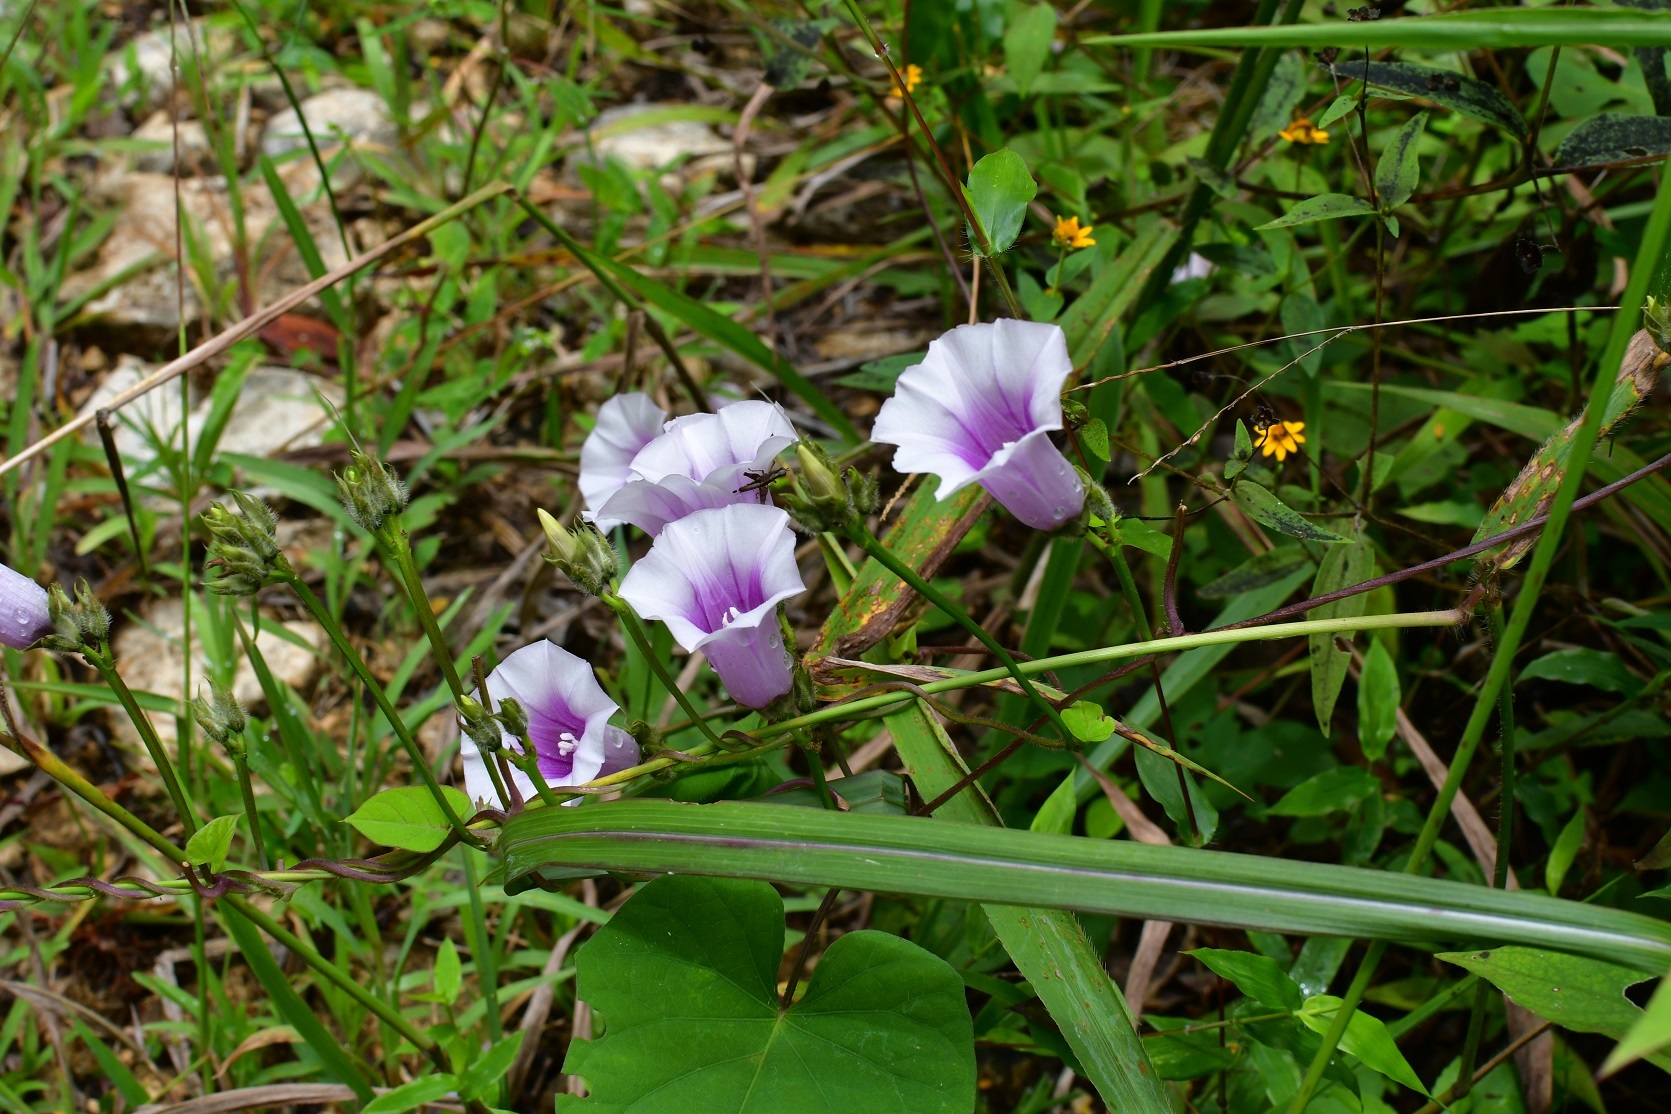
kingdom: Plantae
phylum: Tracheophyta
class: Magnoliopsida
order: Solanales
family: Convolvulaceae
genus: Ipomoea
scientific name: Ipomoea batatas
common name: Sweet-potato
